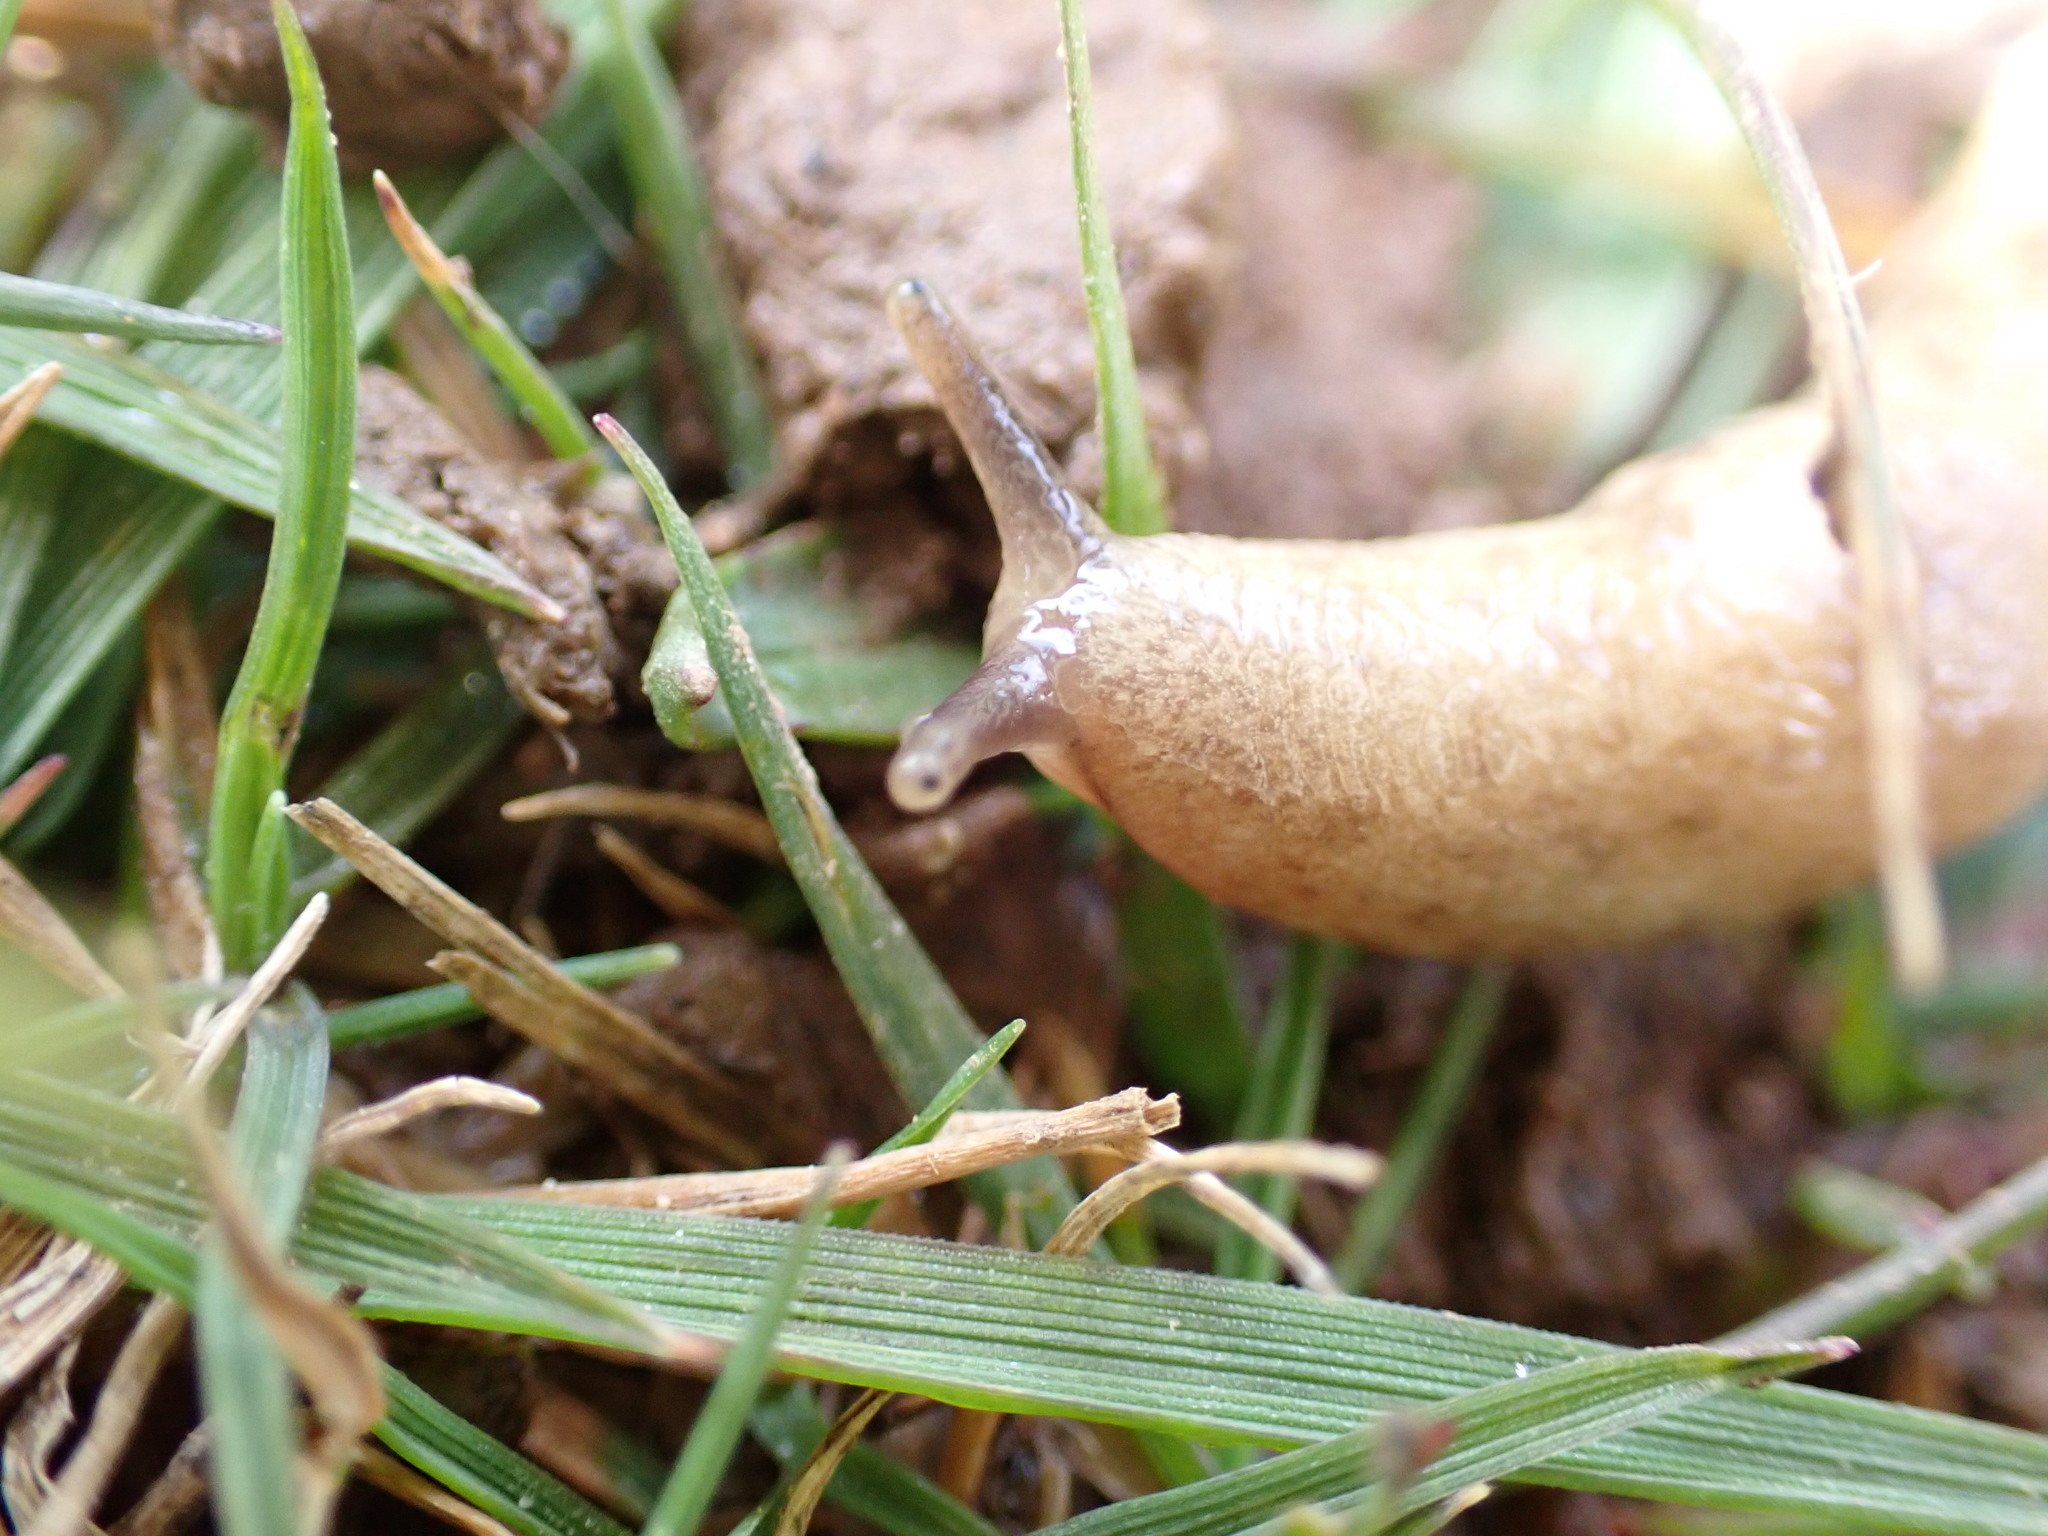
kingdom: Animalia
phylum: Mollusca
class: Gastropoda
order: Stylommatophora
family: Agriolimacidae
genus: Deroceras
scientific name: Deroceras reticulatum
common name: Gray field slug
